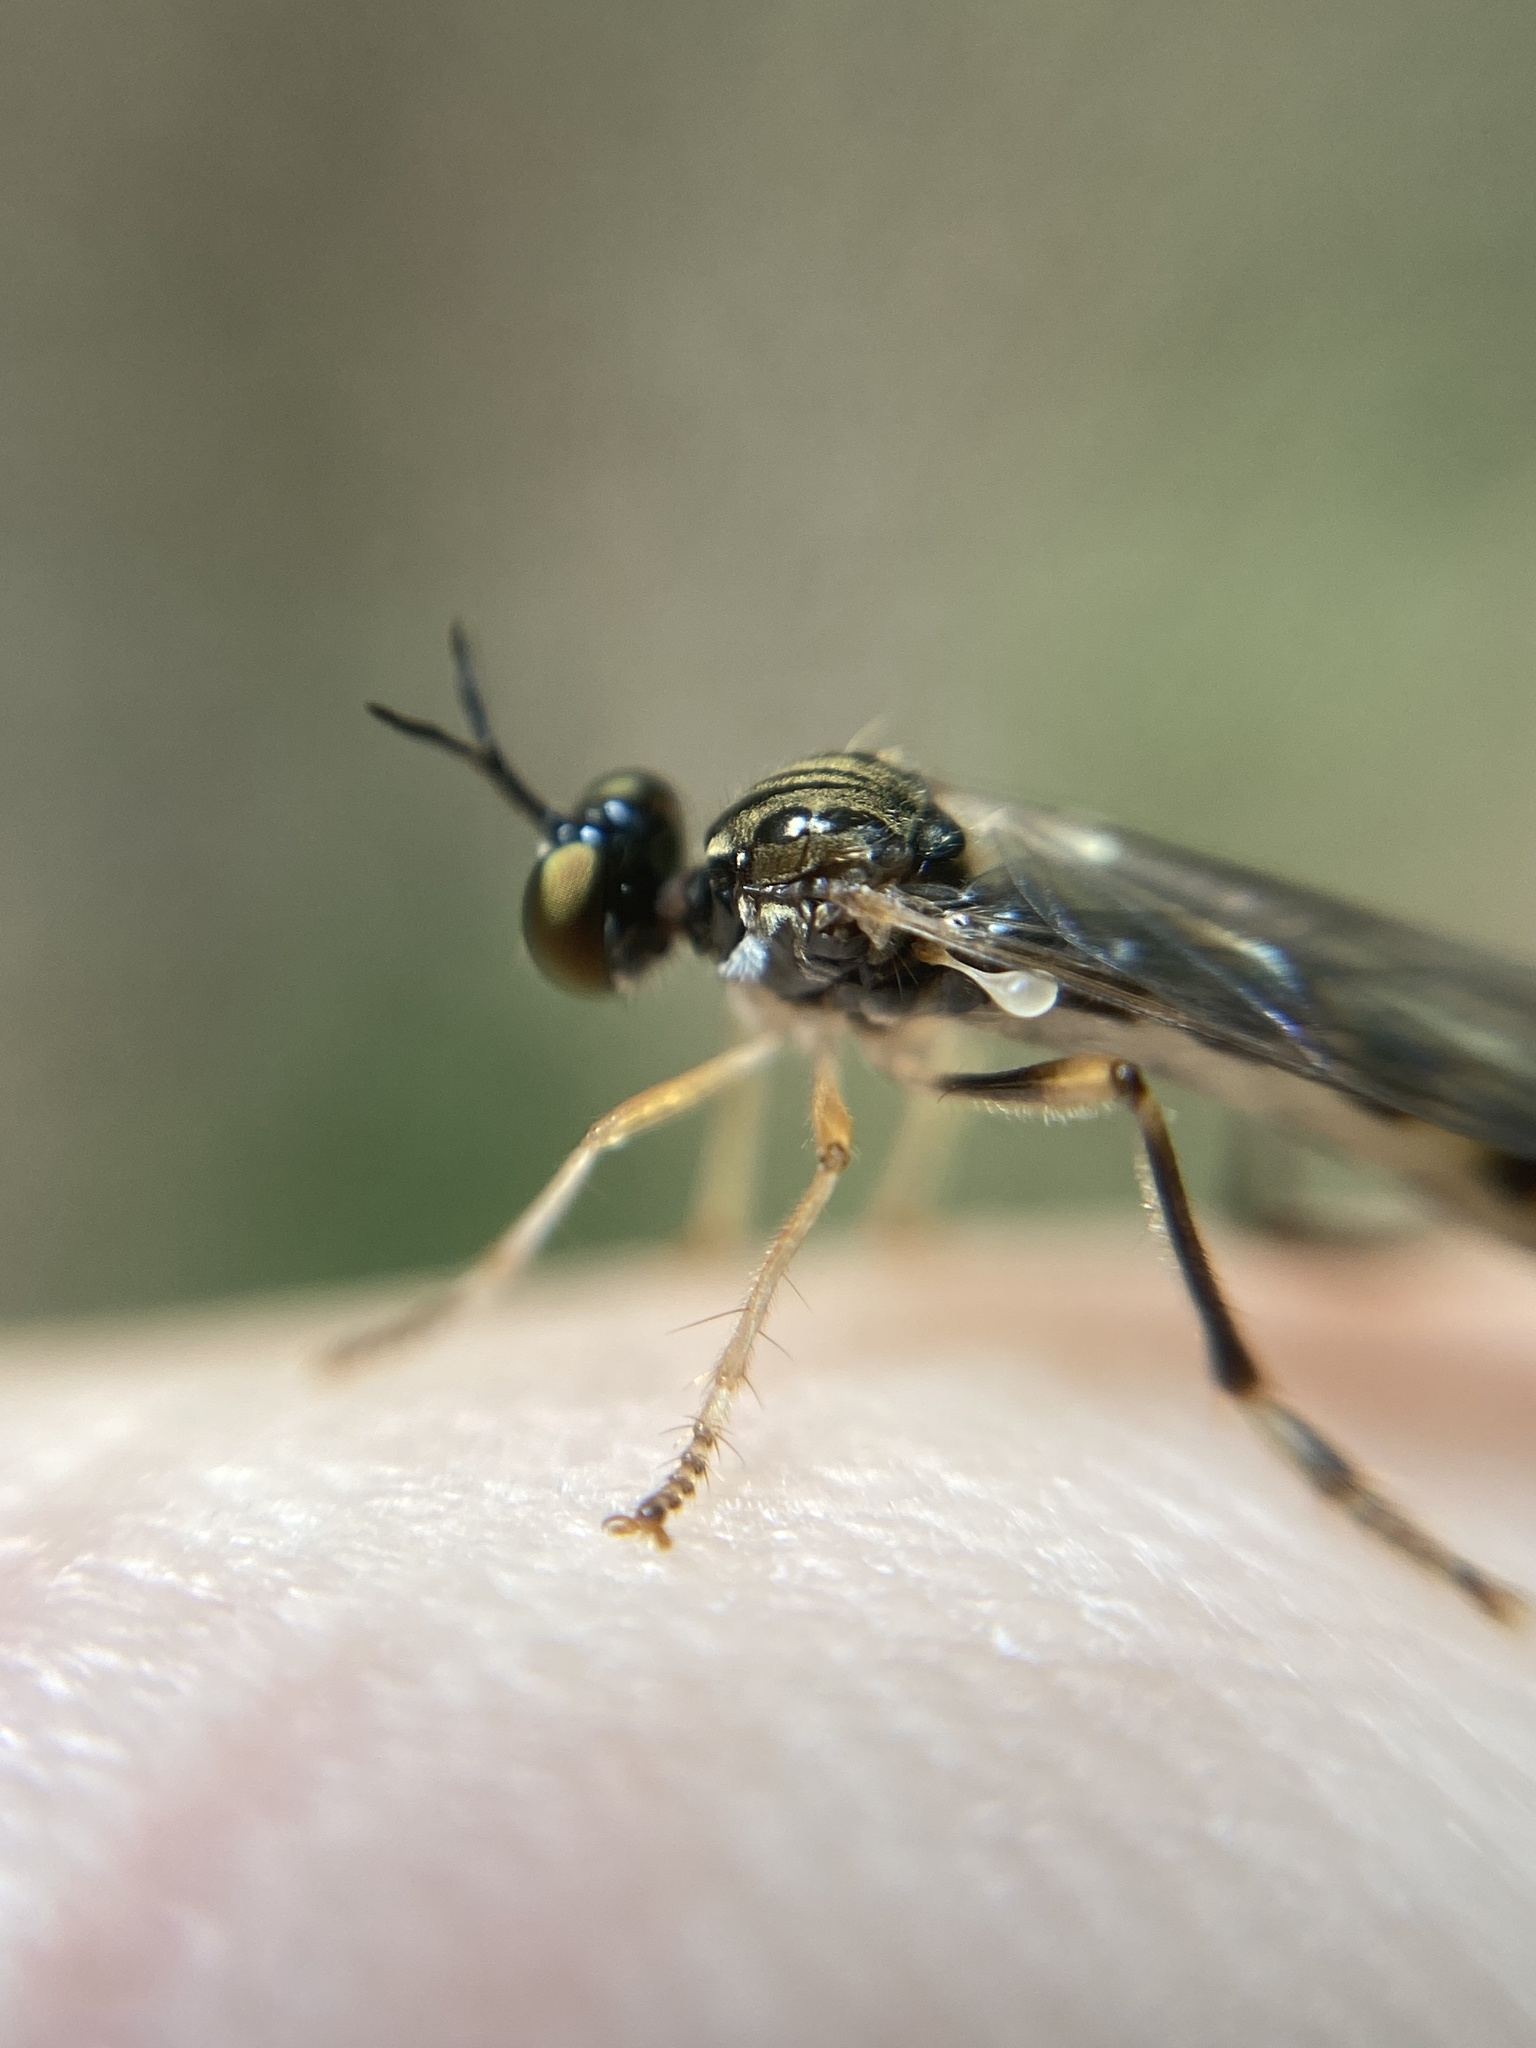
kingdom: Animalia
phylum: Arthropoda
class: Insecta
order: Diptera
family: Asilidae
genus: Dioctria
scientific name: Dioctria linearis
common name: Small yellow-legged robberfly
